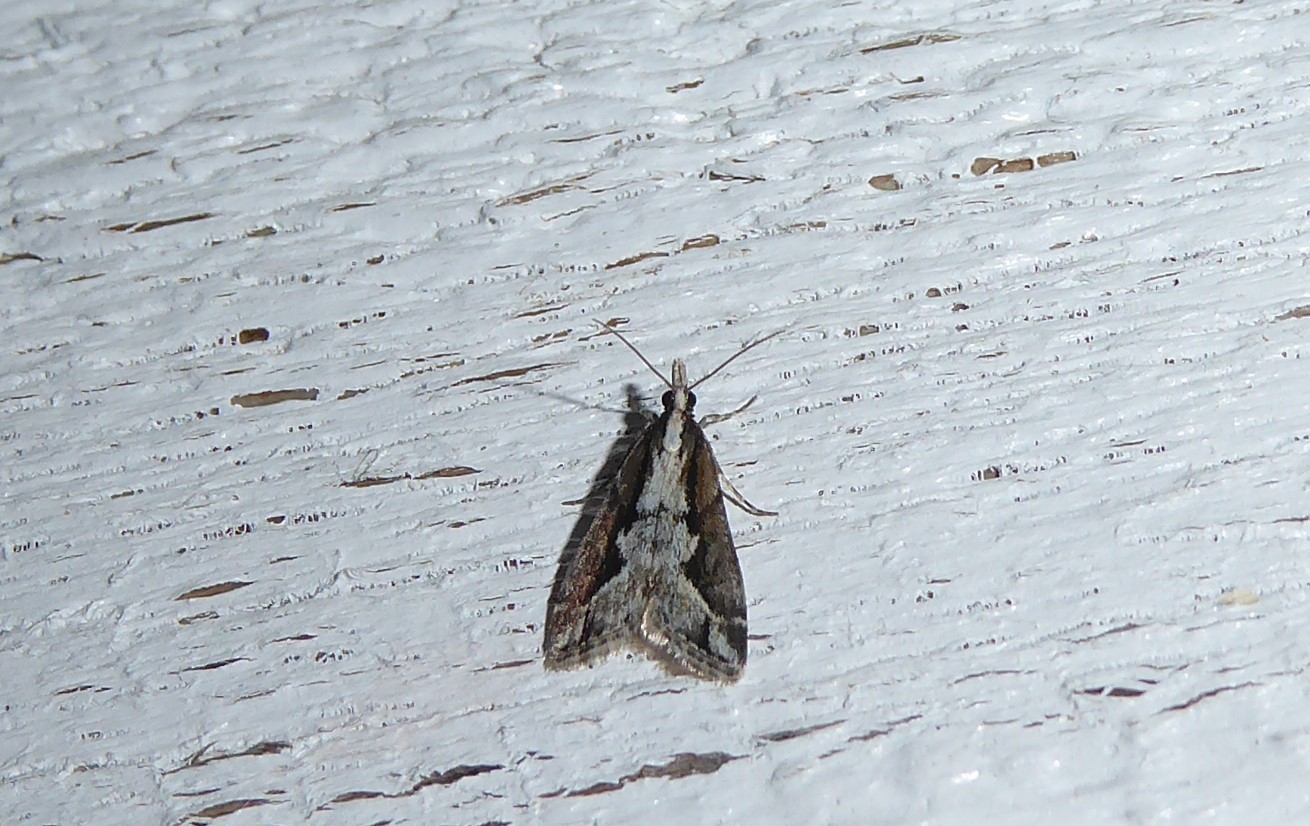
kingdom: Animalia
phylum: Arthropoda
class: Insecta
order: Lepidoptera
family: Crambidae
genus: Eudonia
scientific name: Eudonia steropaea
